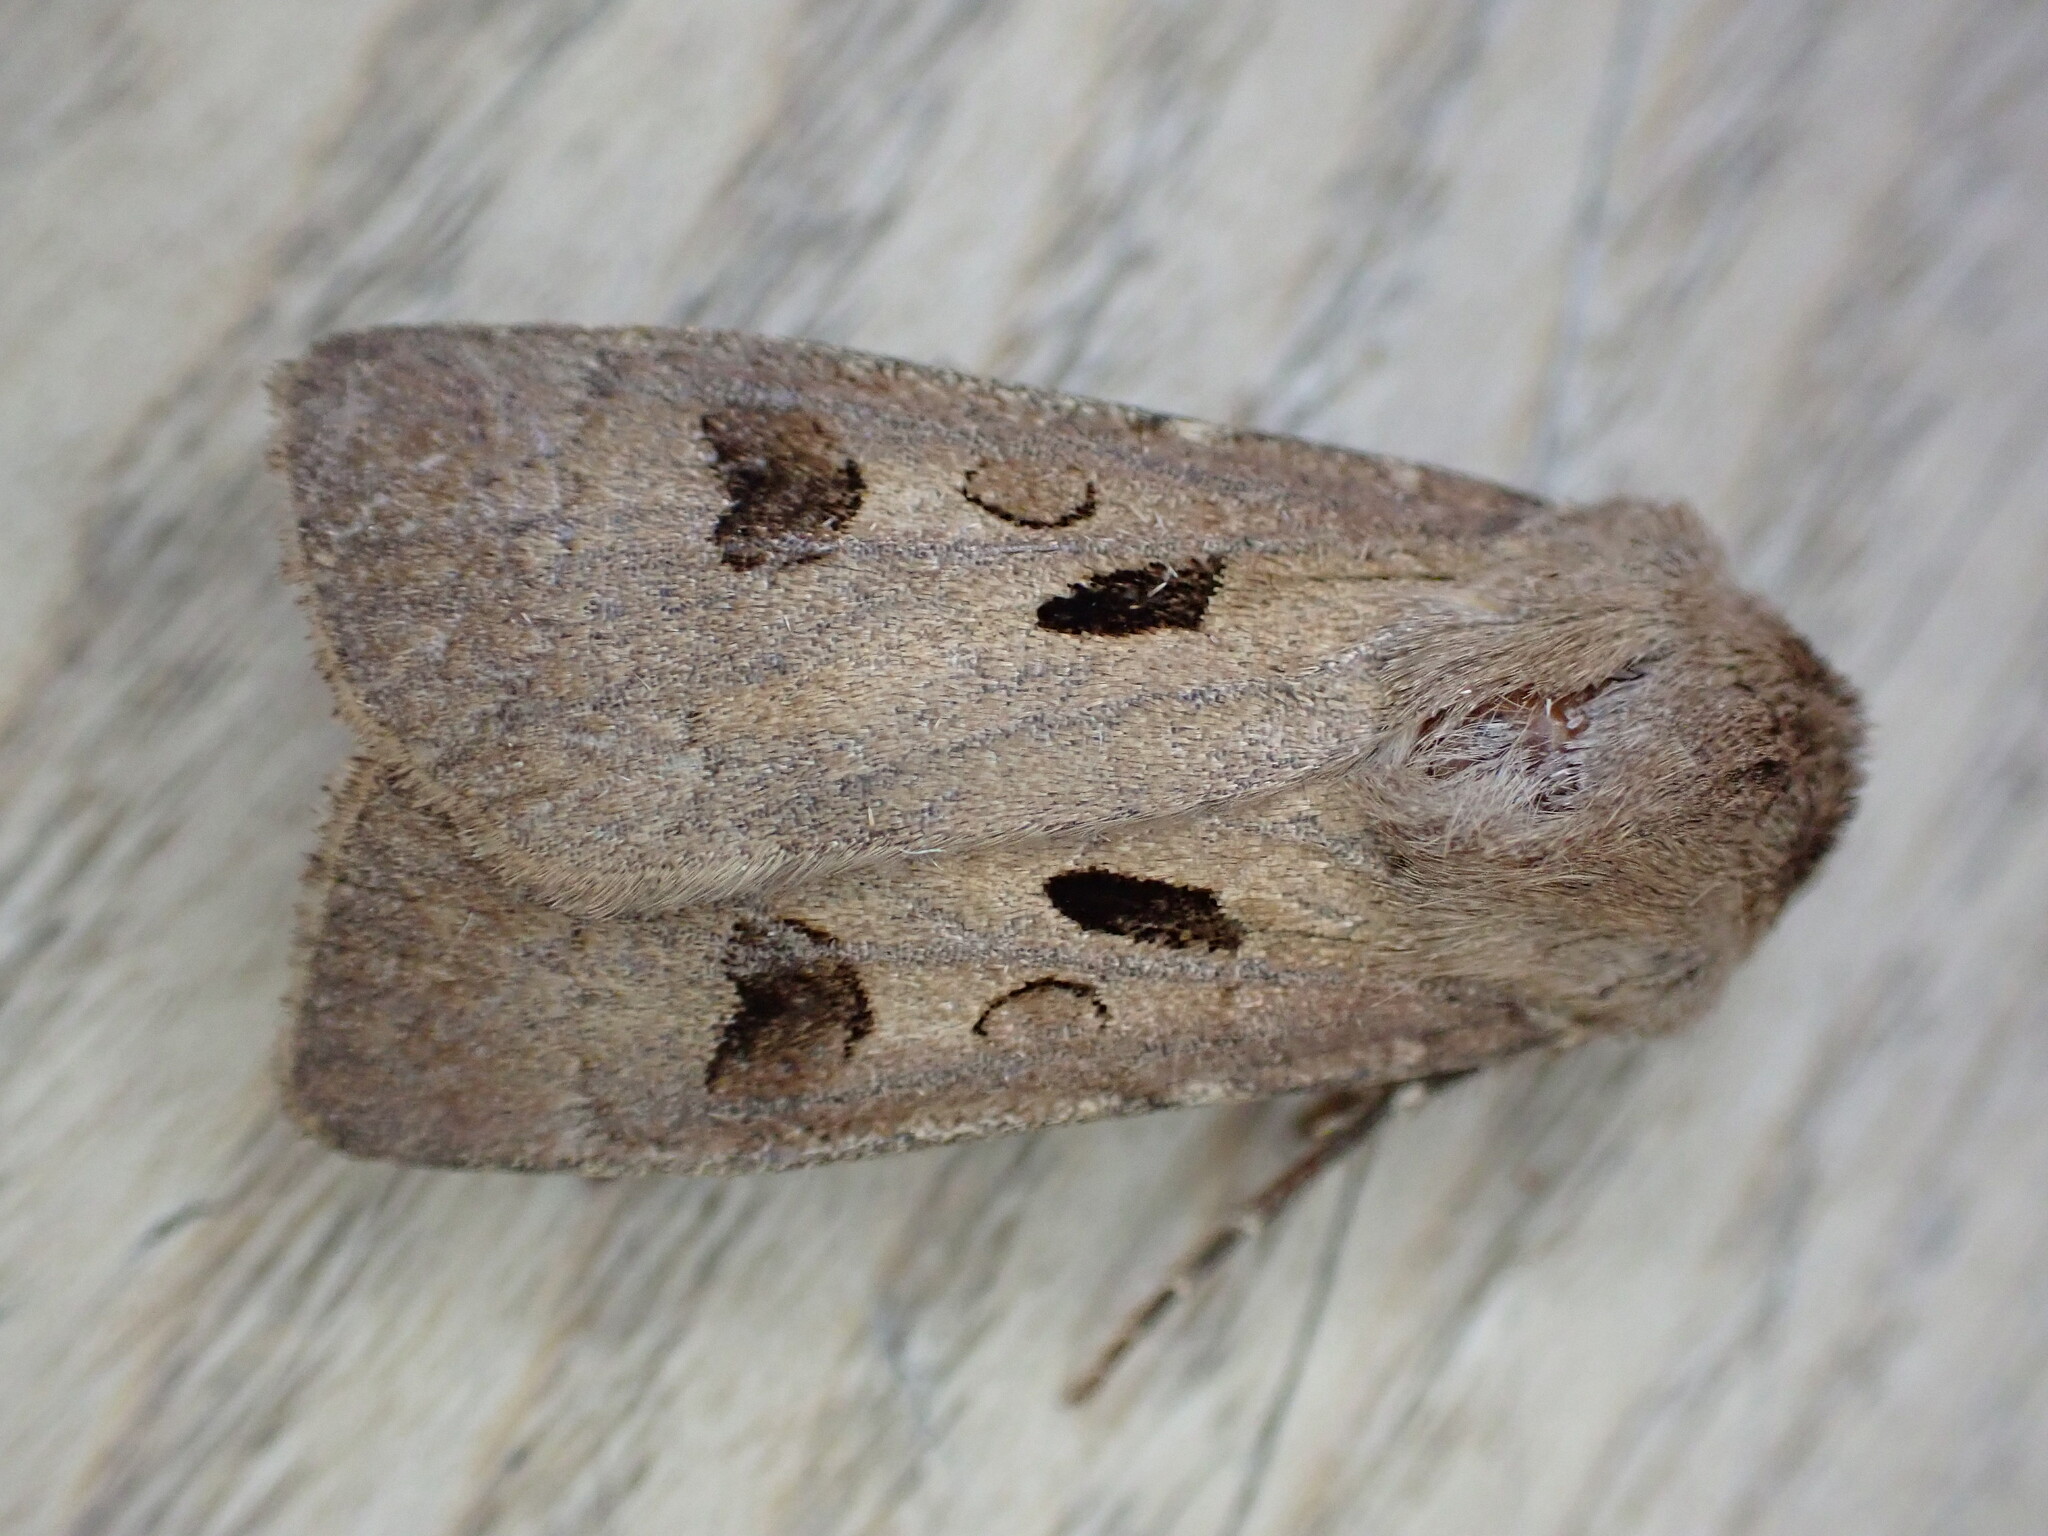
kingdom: Animalia
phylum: Arthropoda
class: Insecta
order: Lepidoptera
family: Noctuidae
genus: Agrotis
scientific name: Agrotis exclamationis
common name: Heart and dart
